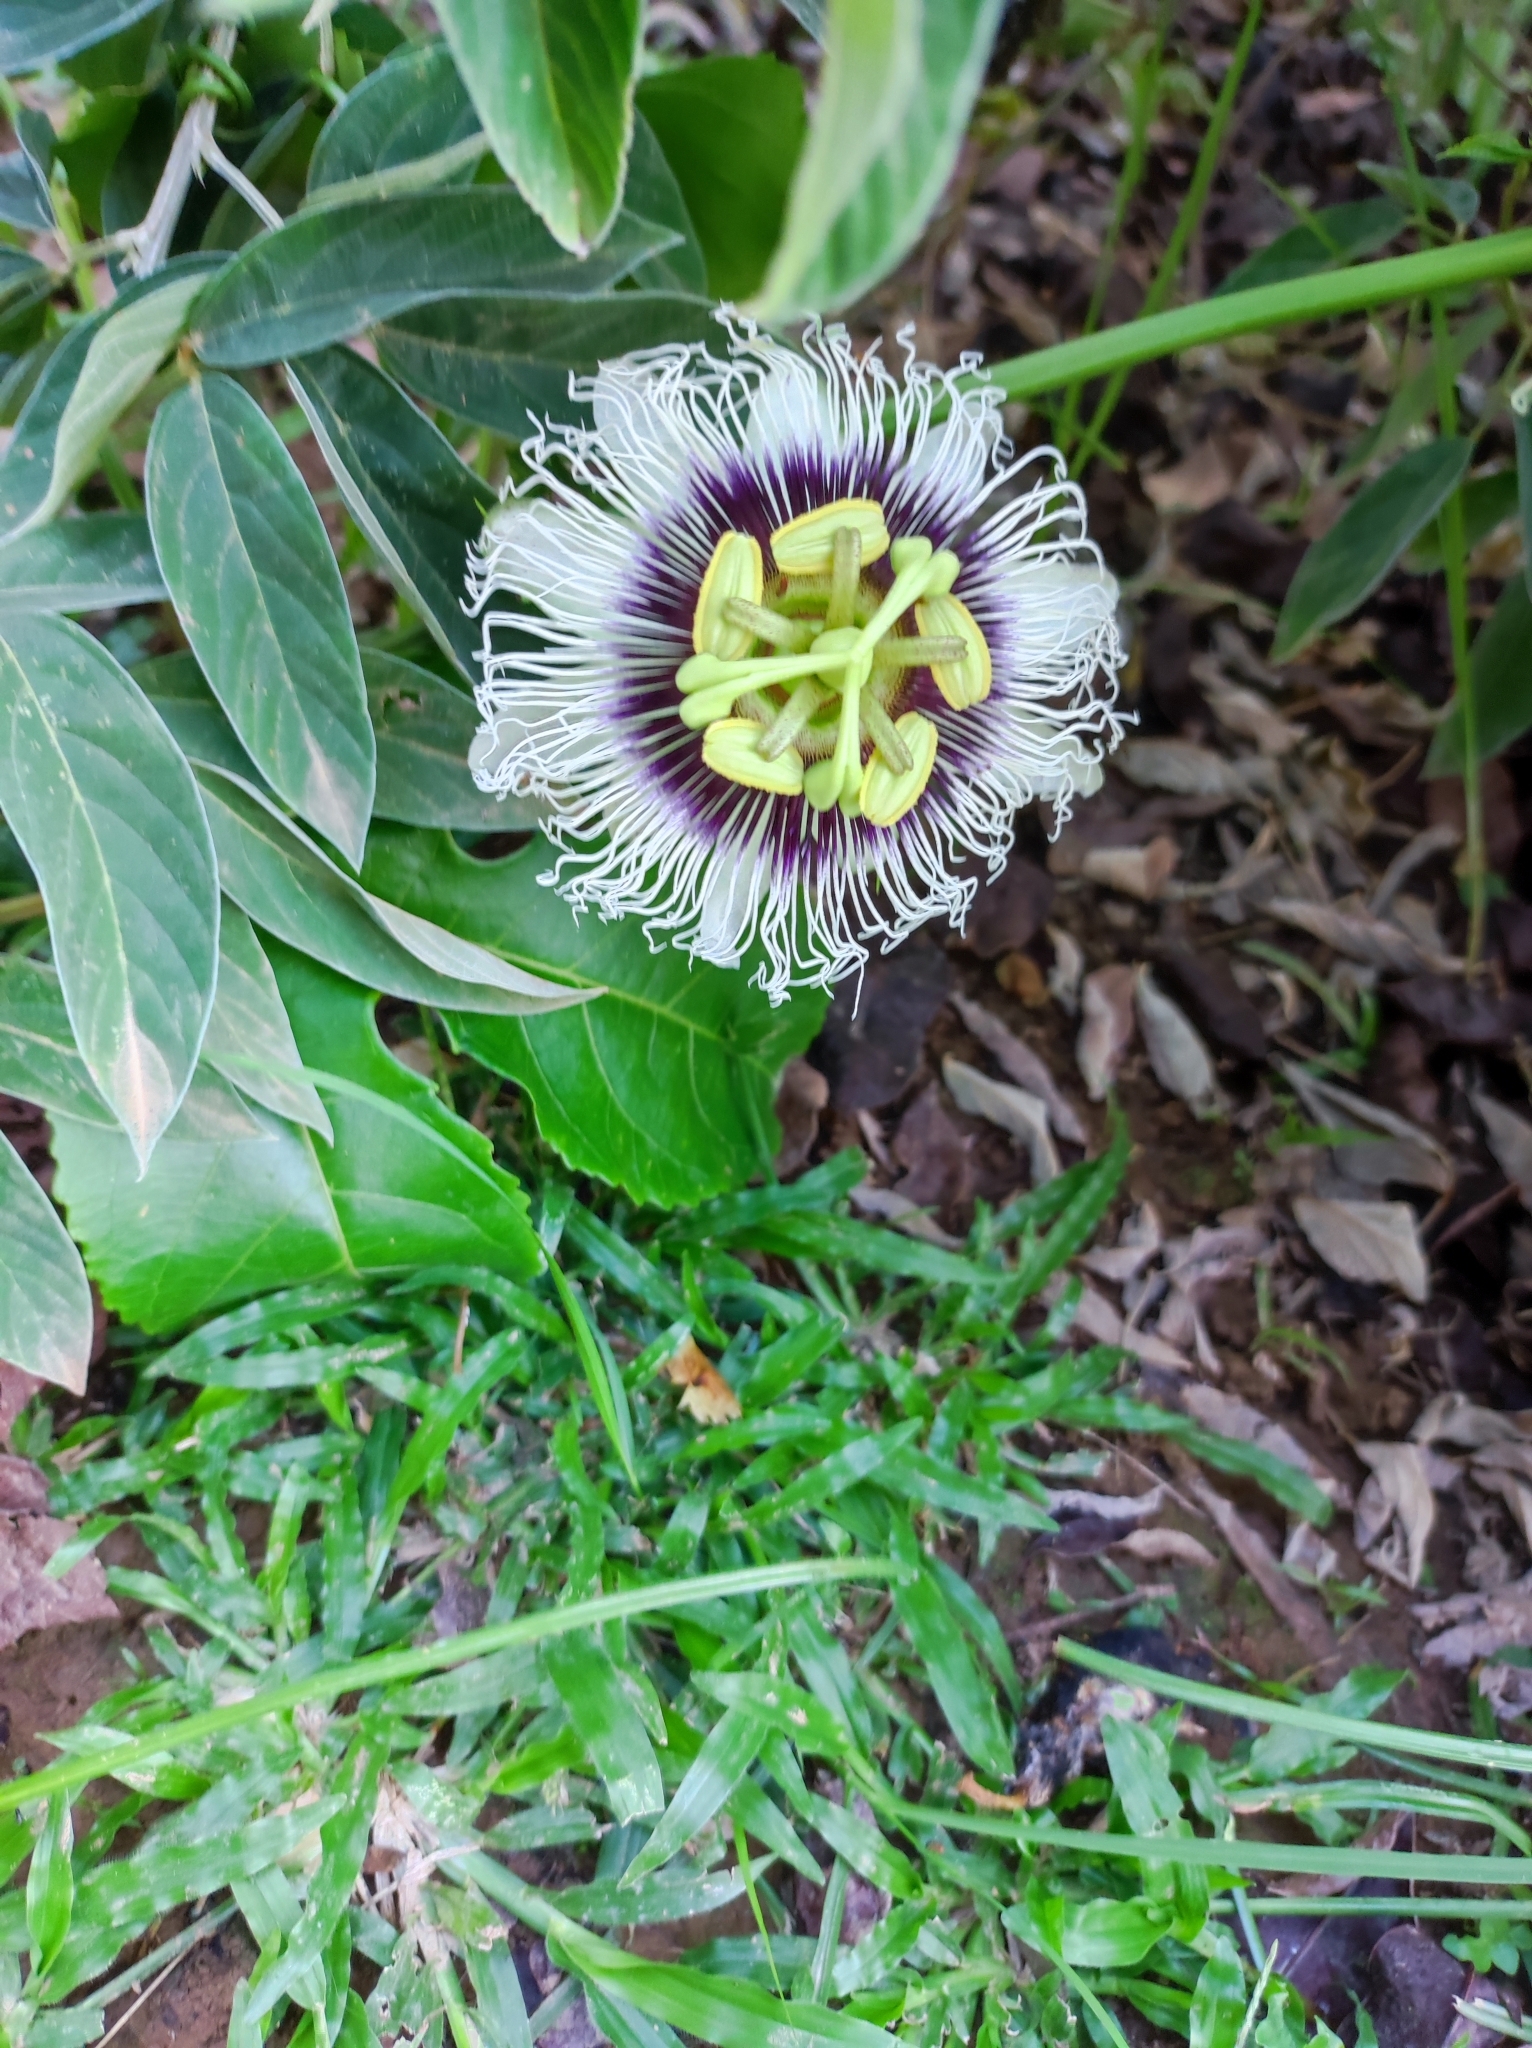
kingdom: Plantae
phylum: Tracheophyta
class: Magnoliopsida
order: Malpighiales
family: Passifloraceae
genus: Passiflora
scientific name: Passiflora edulis
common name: Purple granadilla
